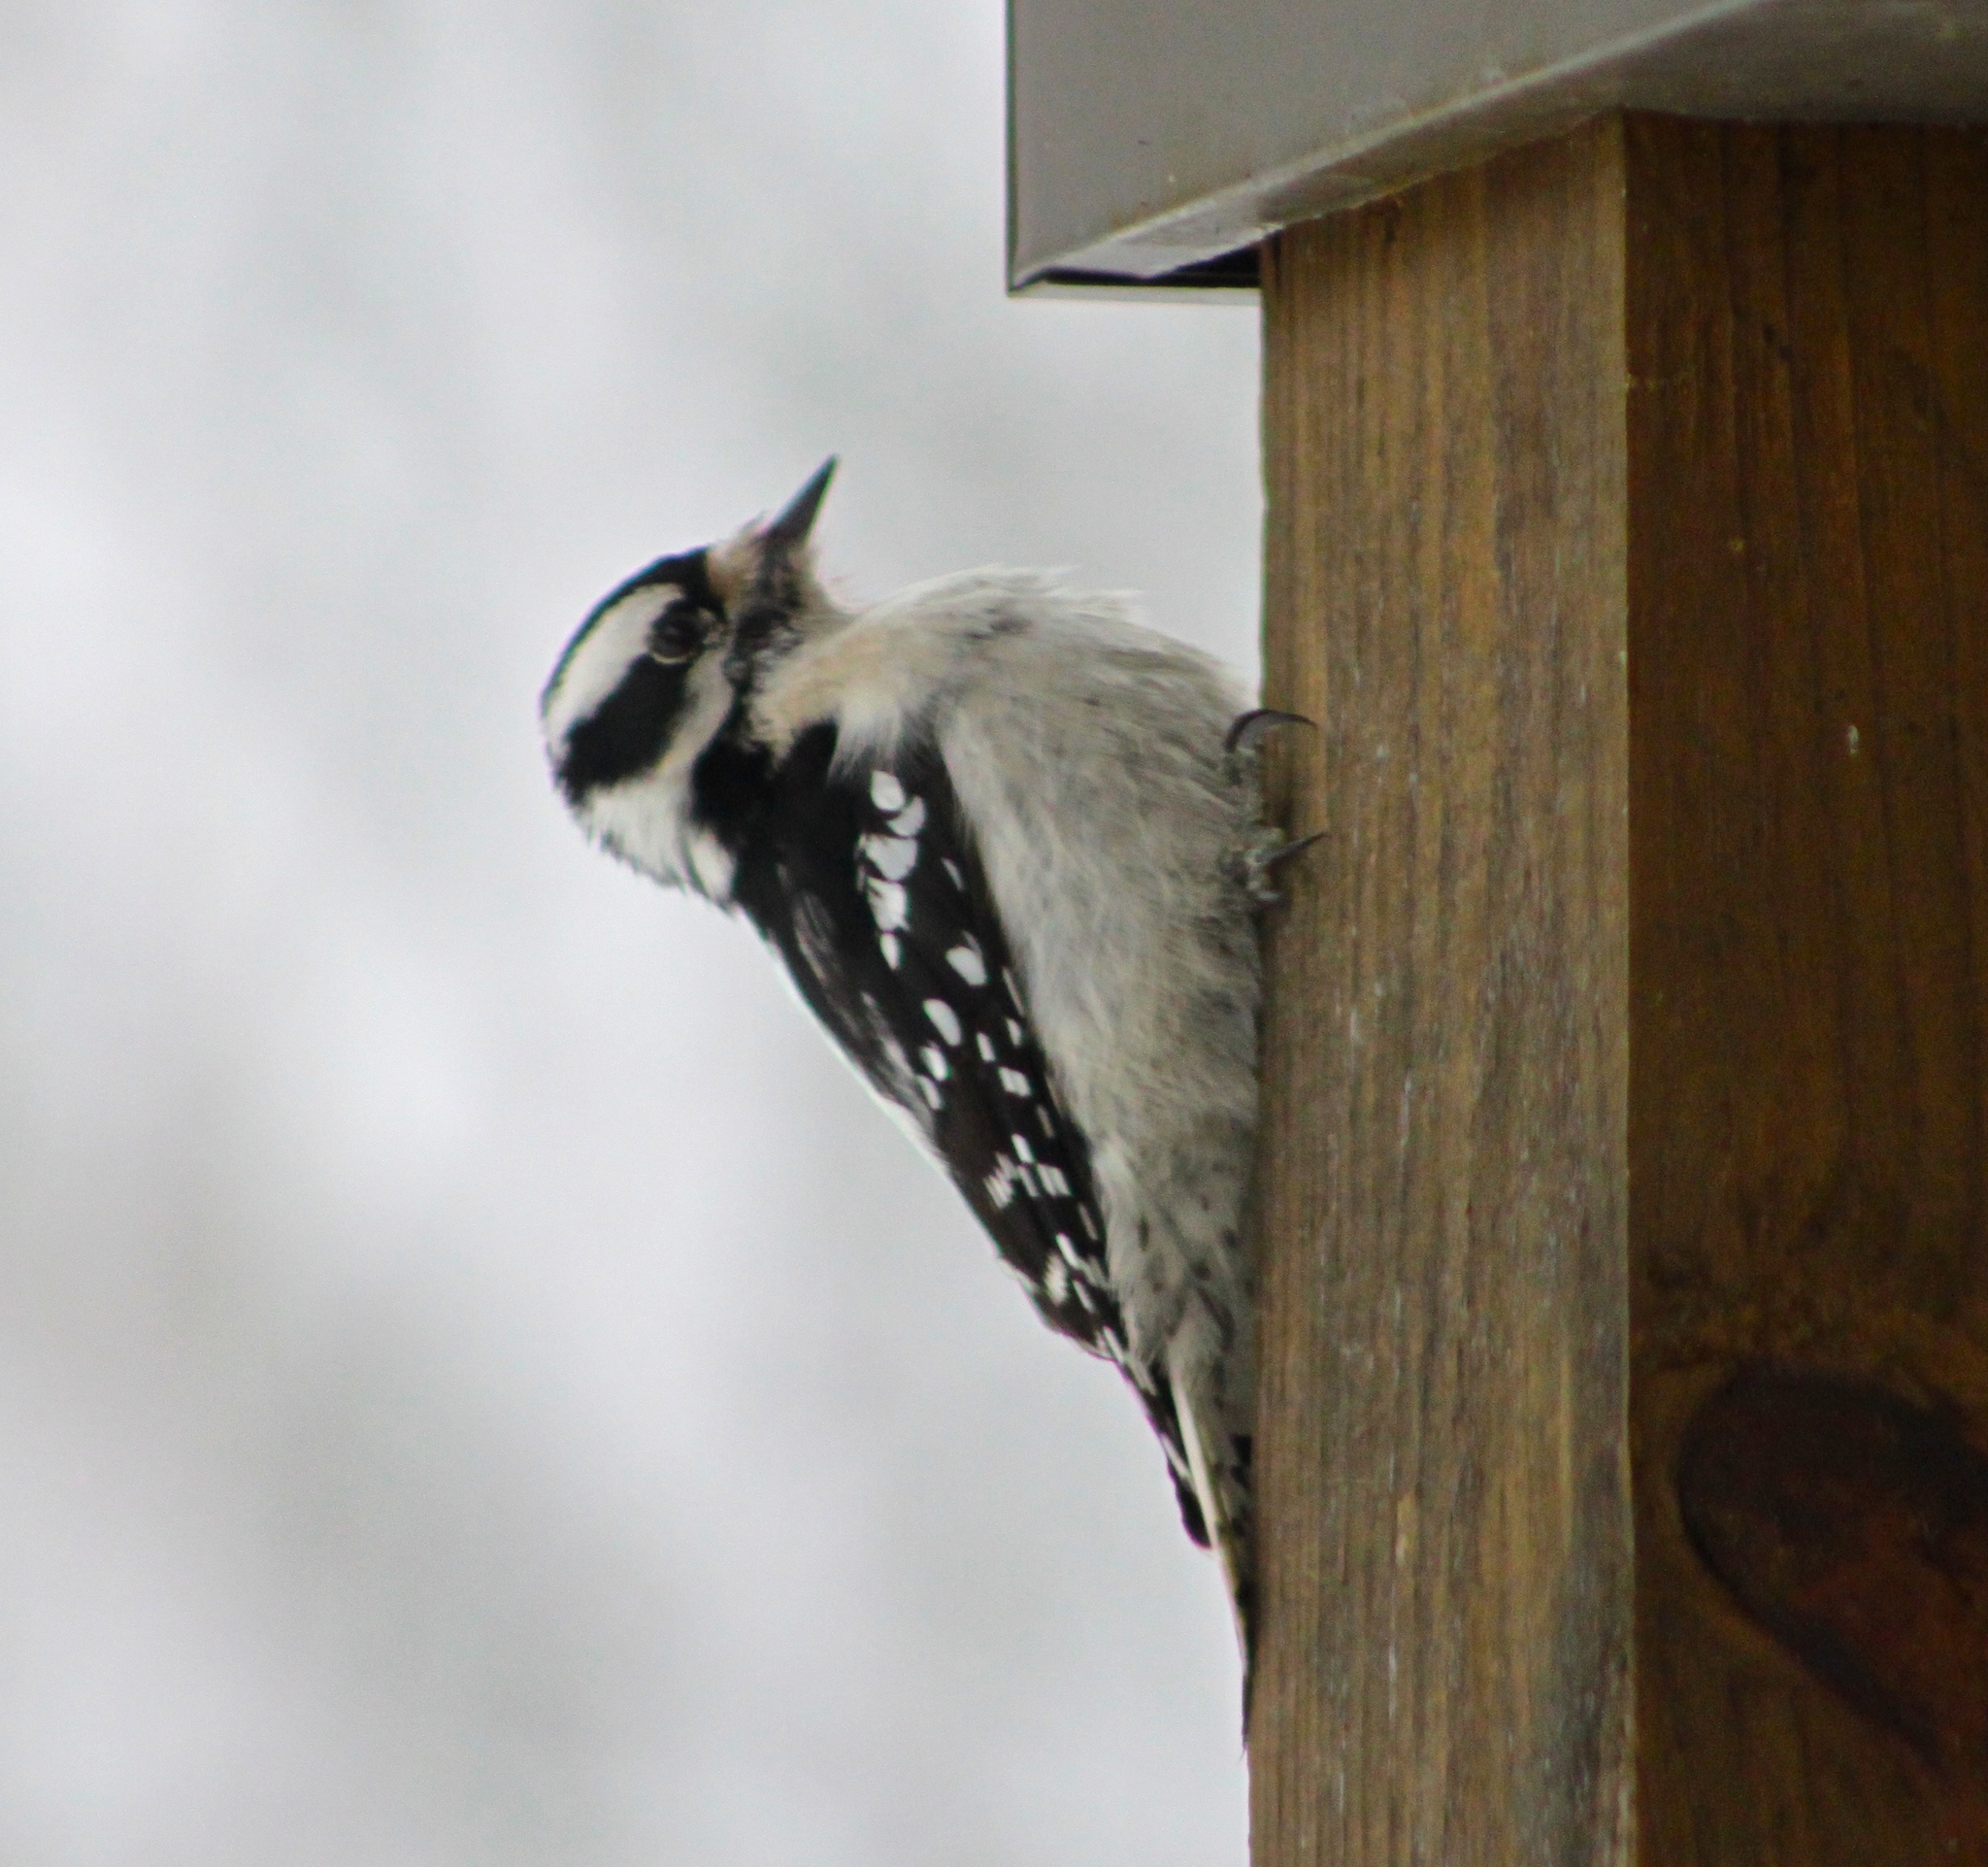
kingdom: Animalia
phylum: Chordata
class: Aves
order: Piciformes
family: Picidae
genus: Dryobates
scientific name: Dryobates pubescens
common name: Downy woodpecker
